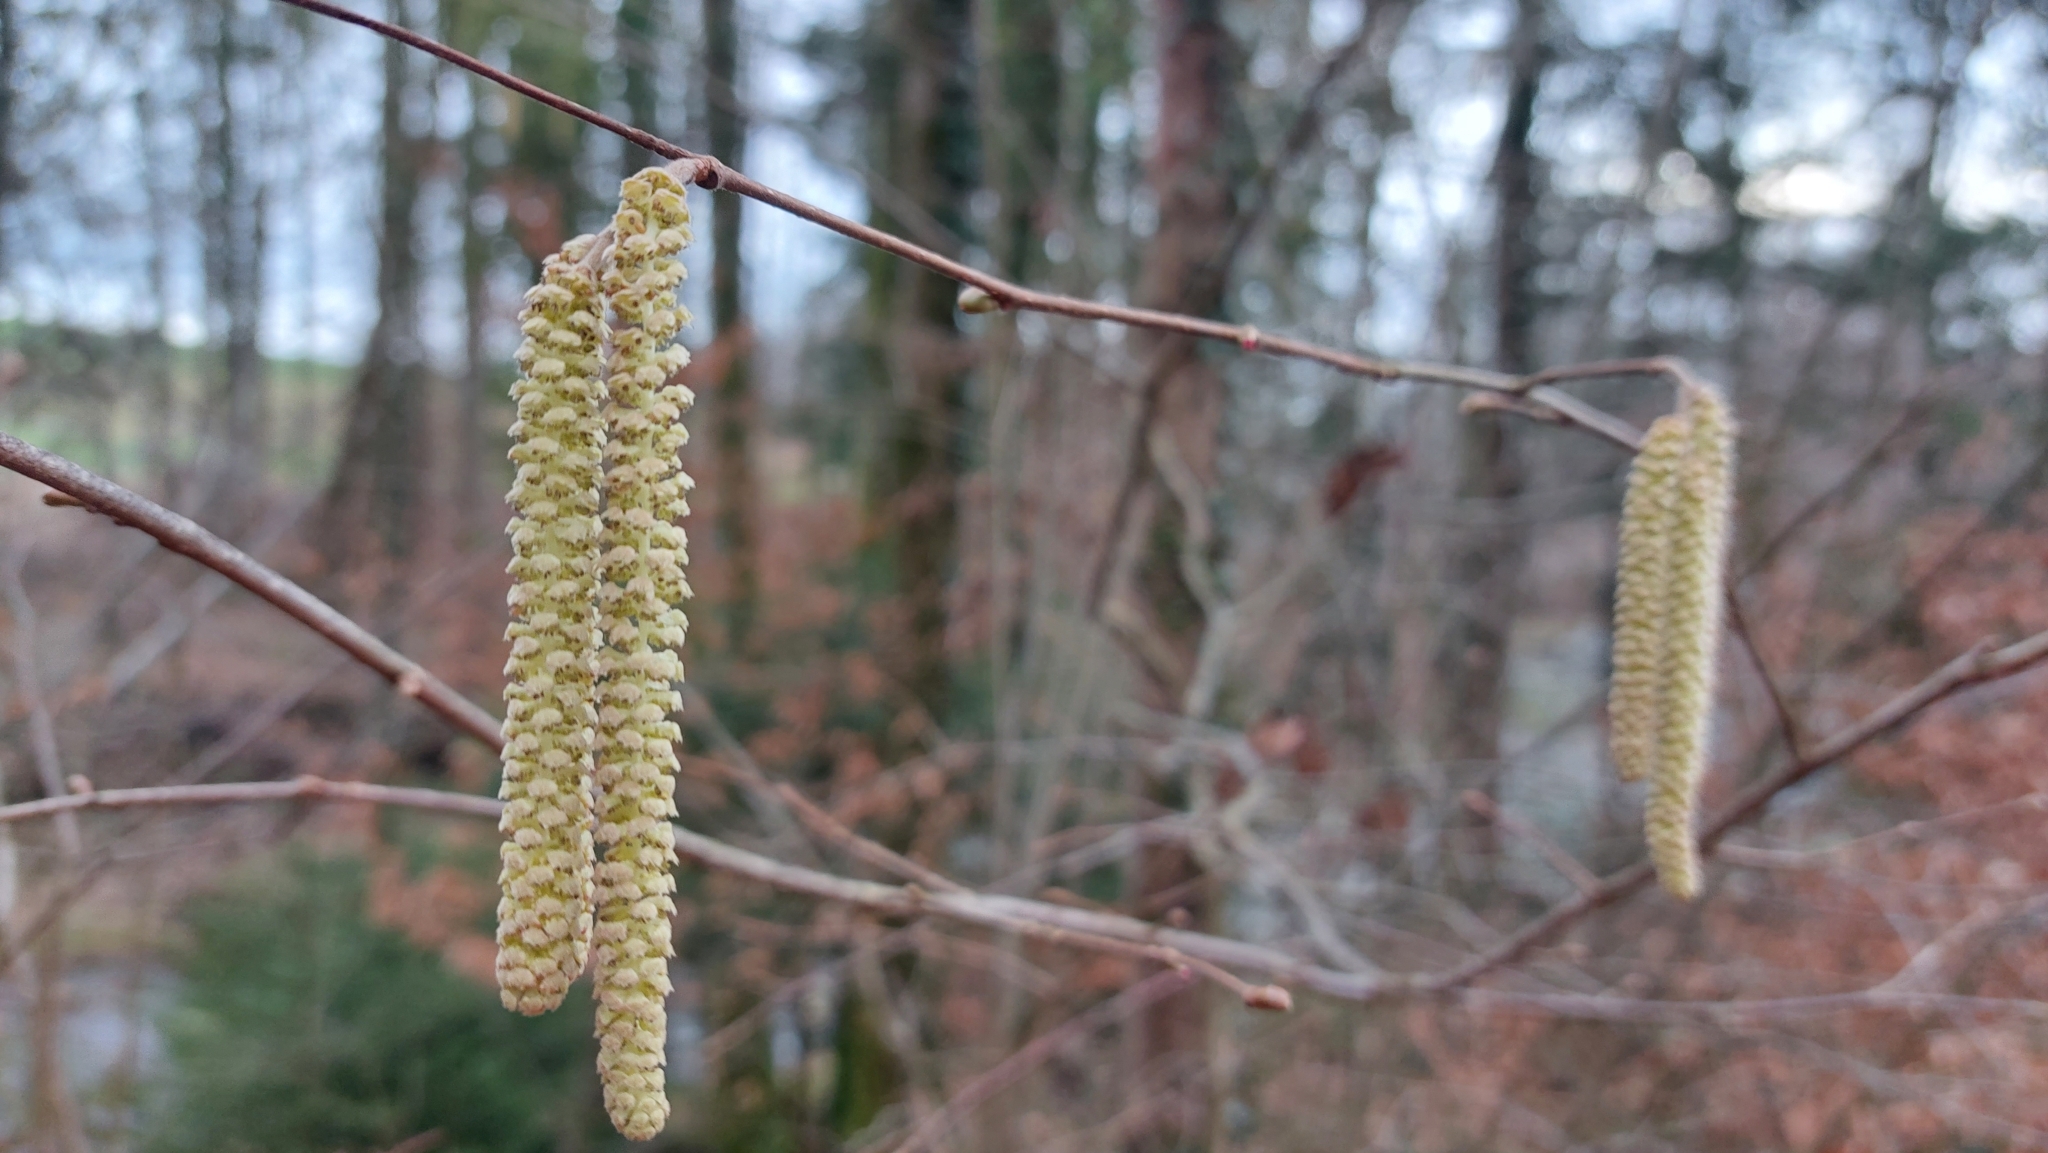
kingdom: Plantae
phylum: Tracheophyta
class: Magnoliopsida
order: Fagales
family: Betulaceae
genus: Corylus
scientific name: Corylus avellana
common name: European hazel
